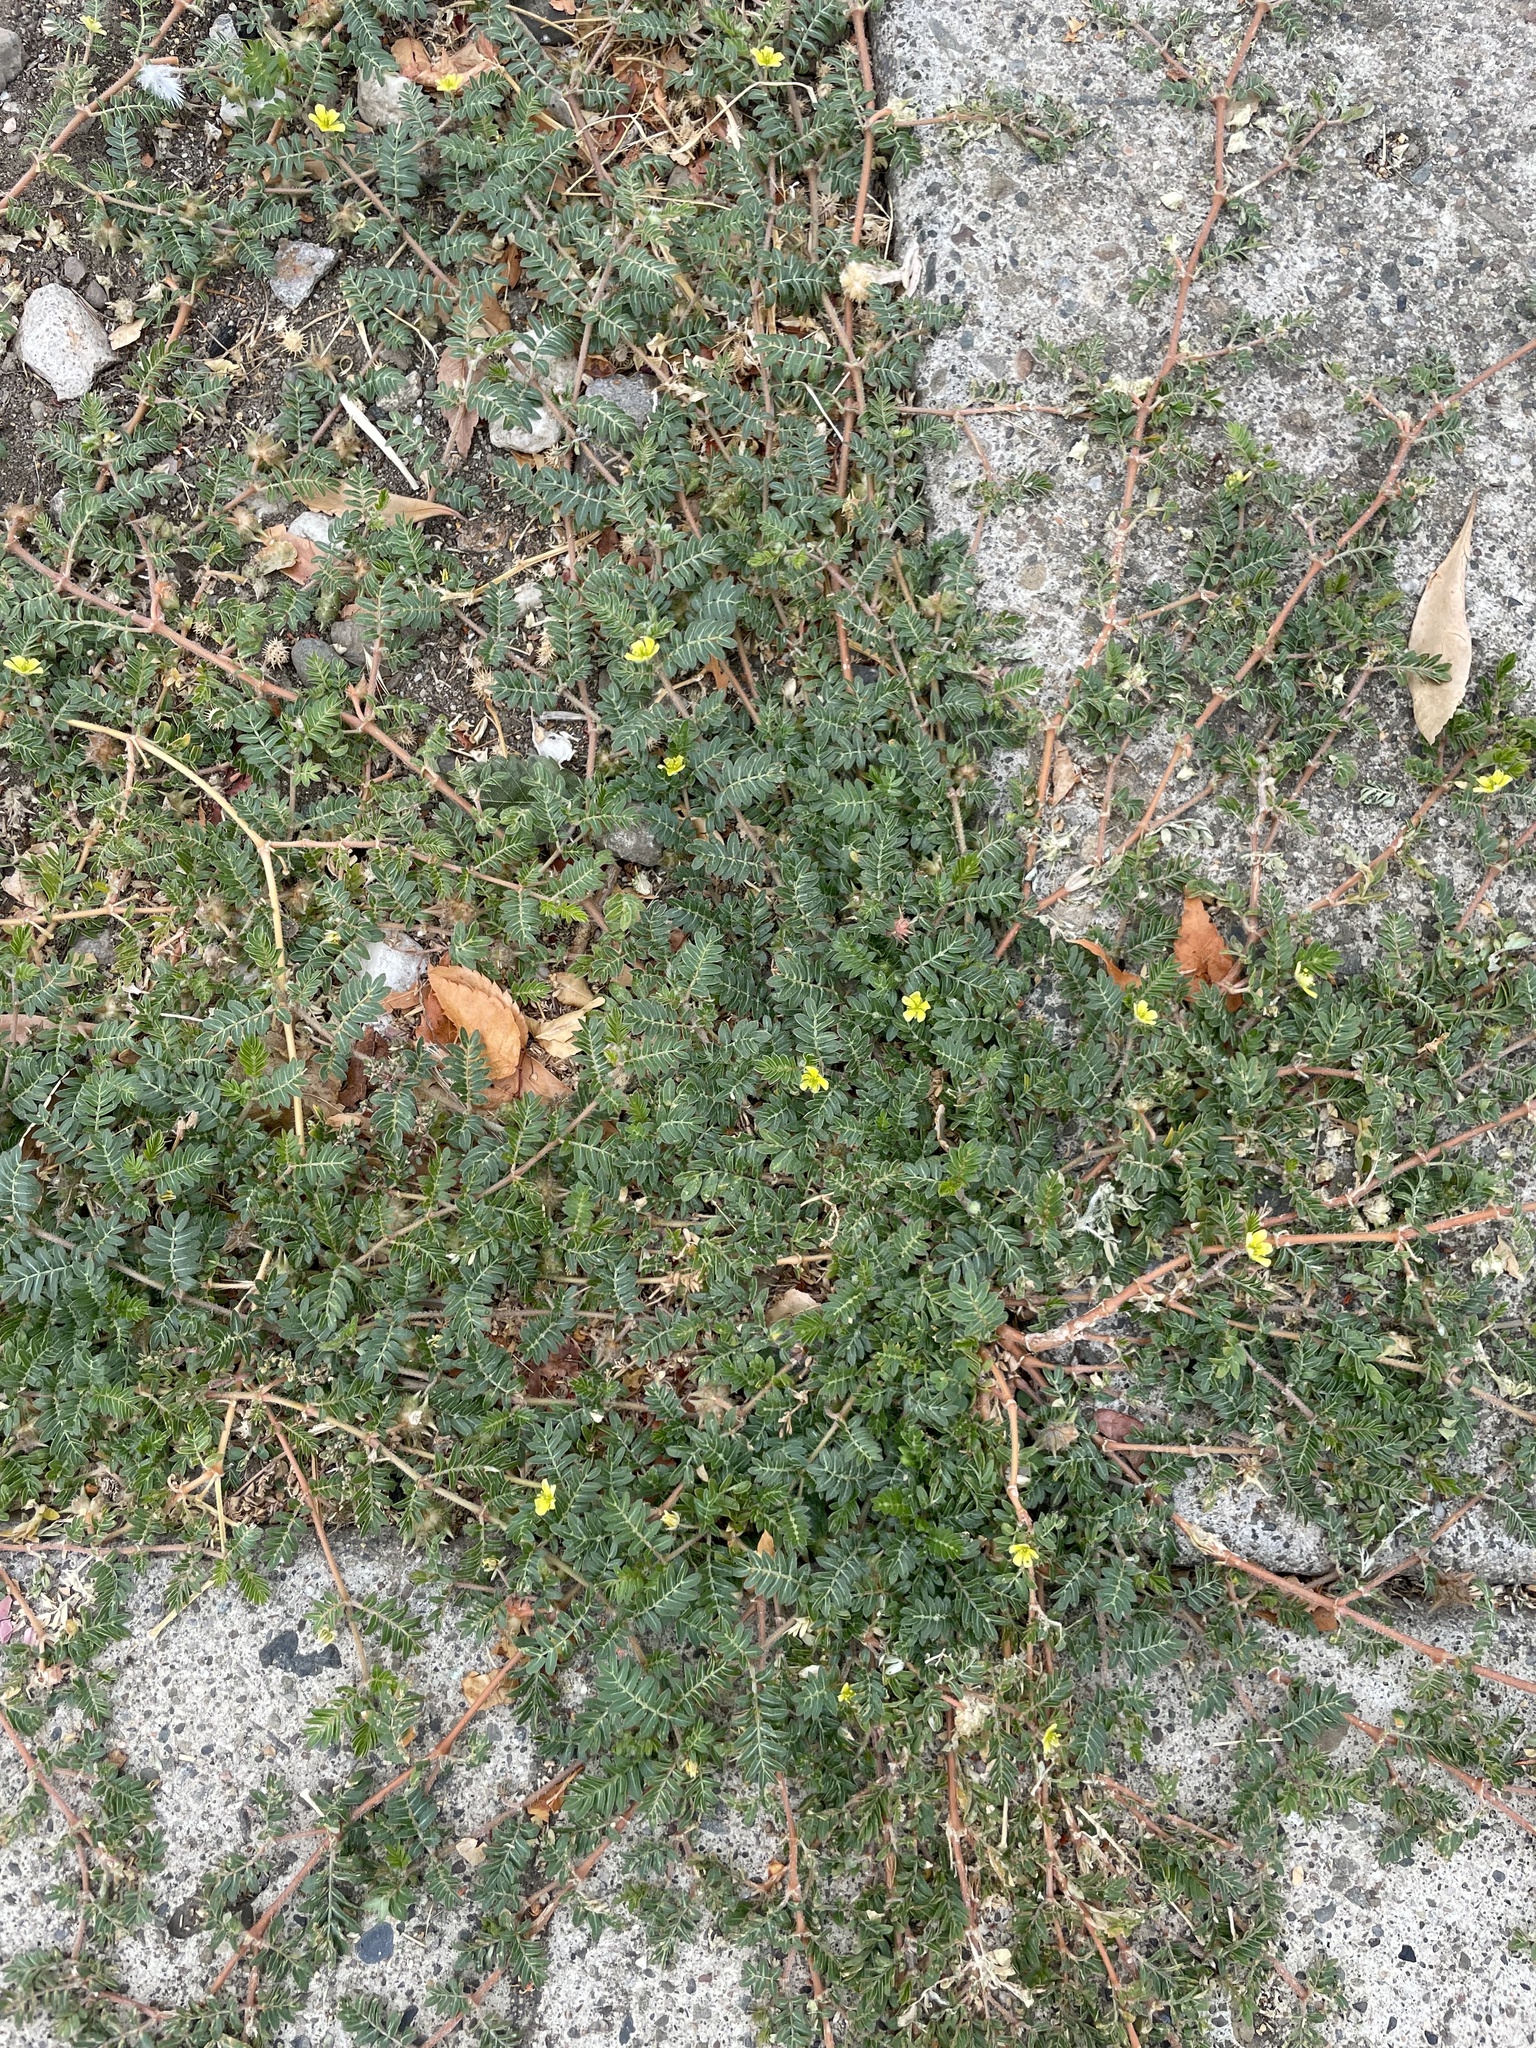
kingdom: Plantae
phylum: Tracheophyta
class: Magnoliopsida
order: Zygophyllales
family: Zygophyllaceae
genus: Tribulus
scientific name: Tribulus terrestris
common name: Puncturevine
